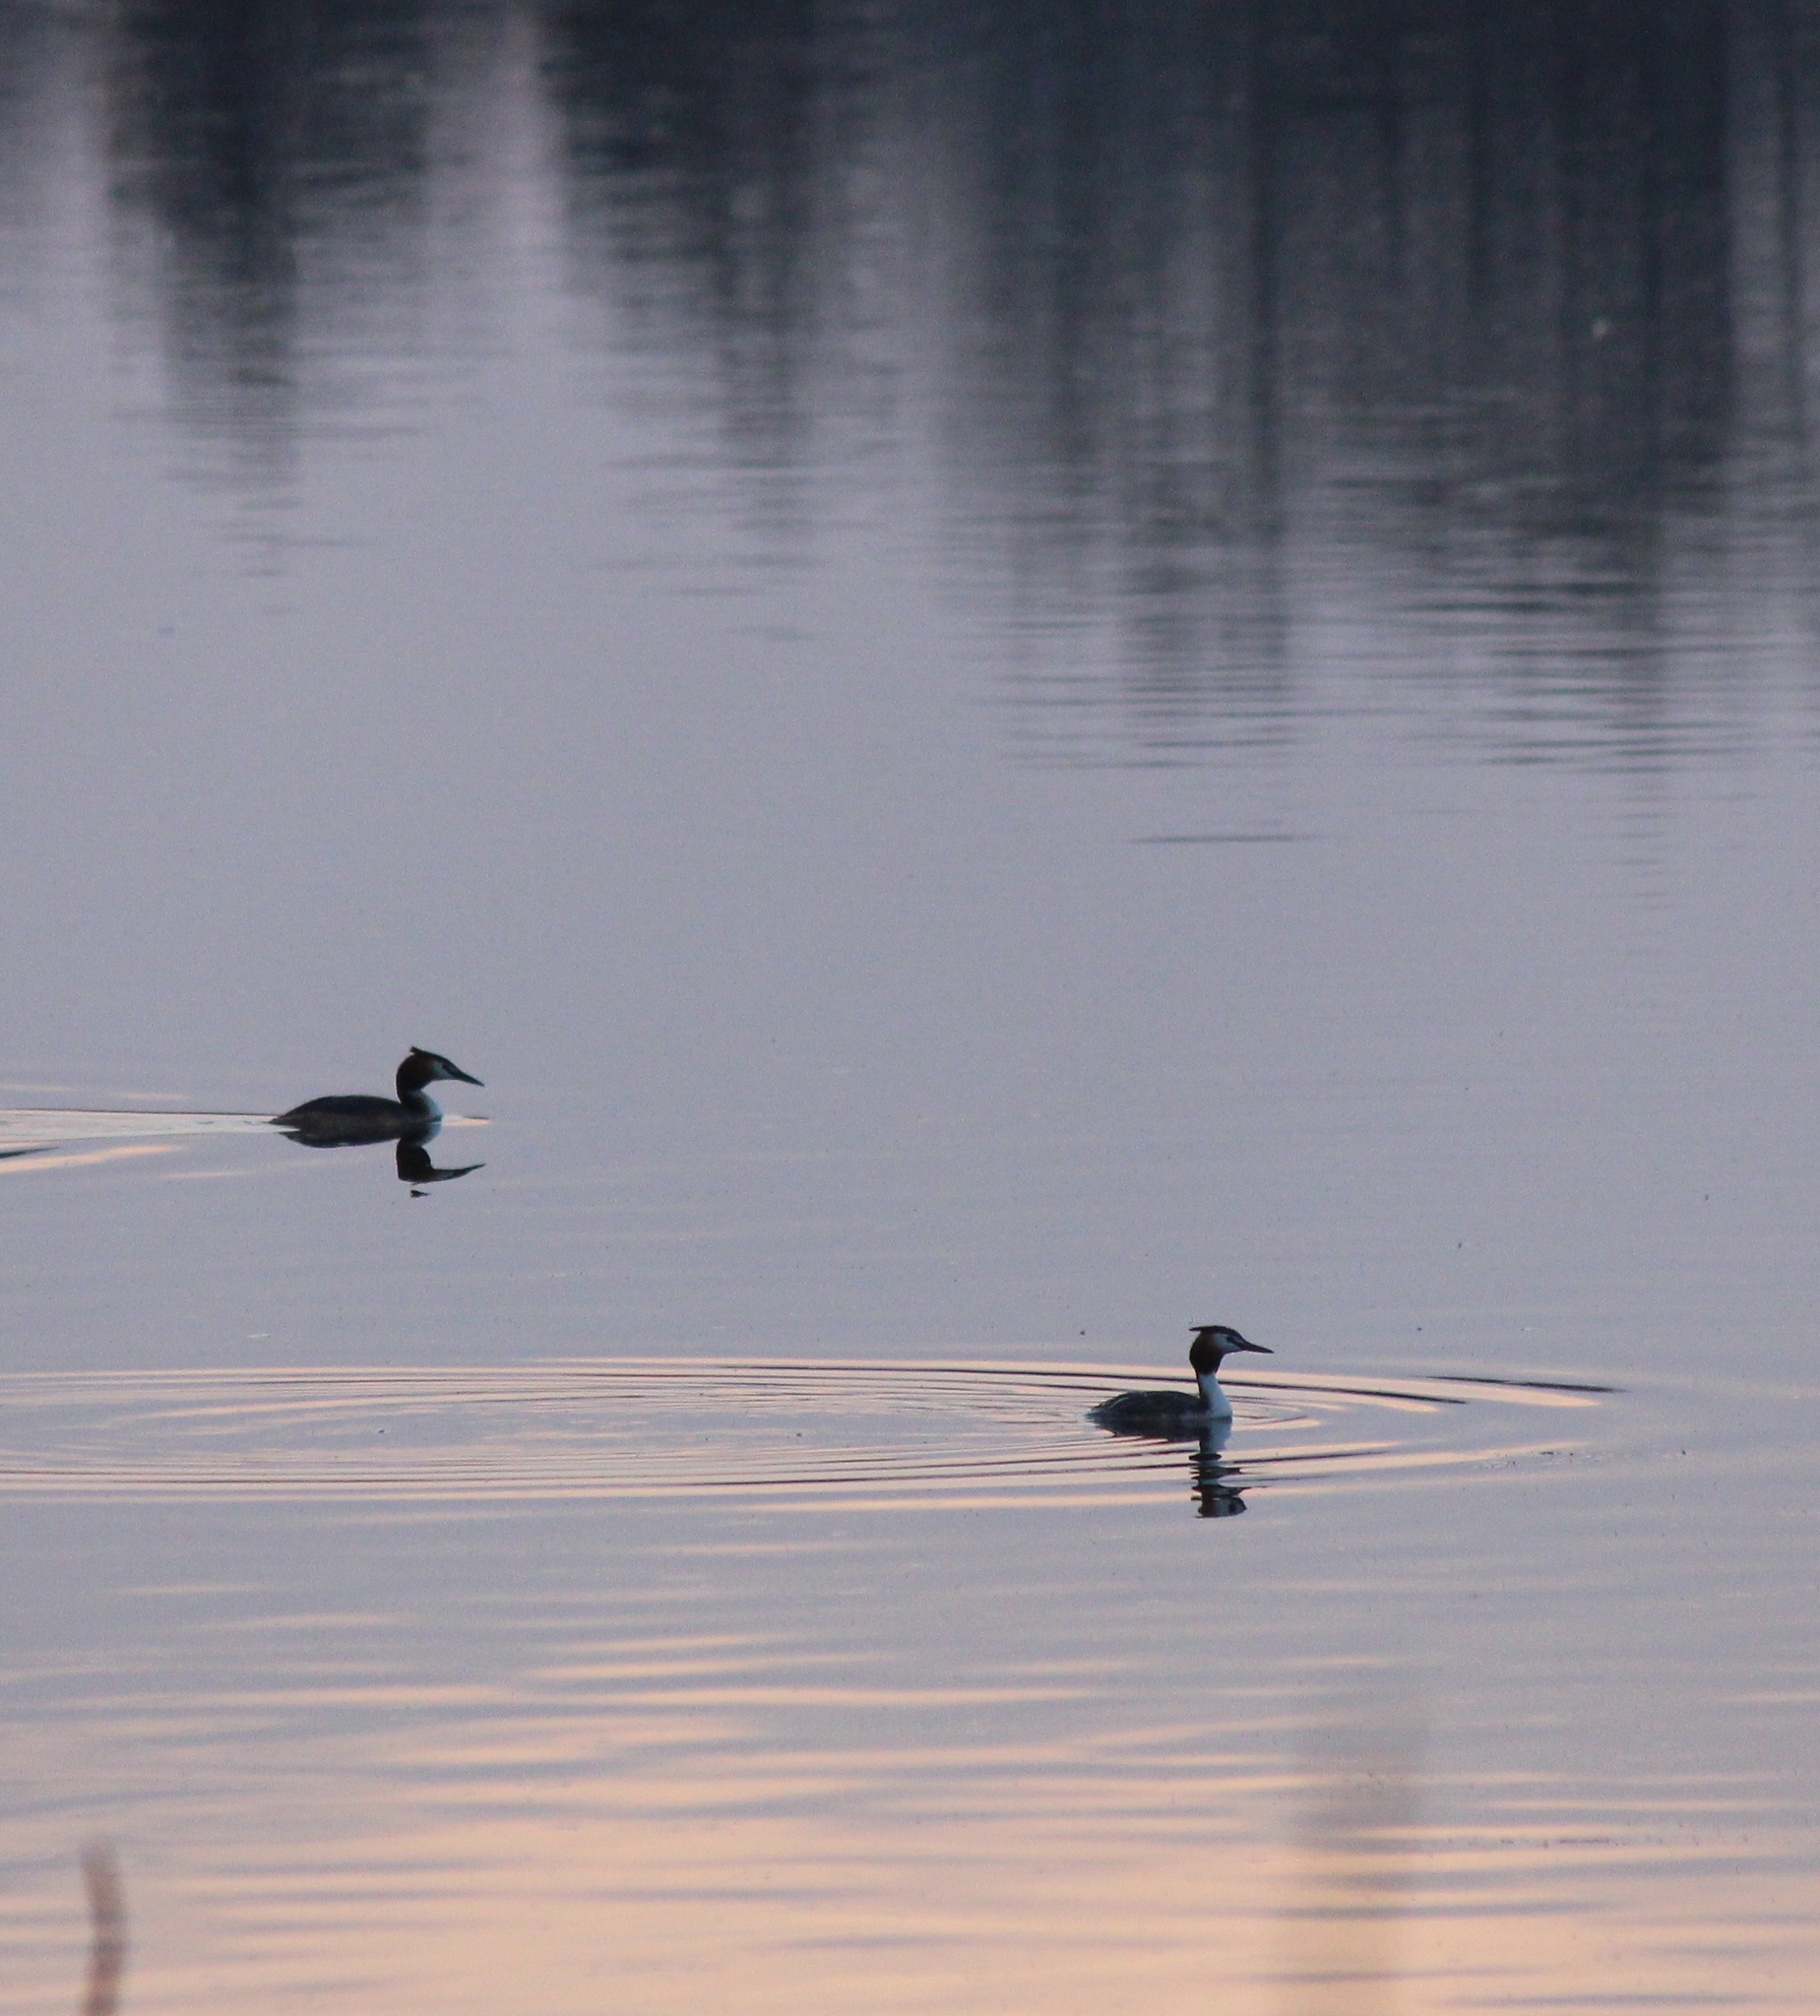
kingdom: Animalia
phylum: Chordata
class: Aves
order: Podicipediformes
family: Podicipedidae
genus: Podiceps
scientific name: Podiceps cristatus
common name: Great crested grebe
